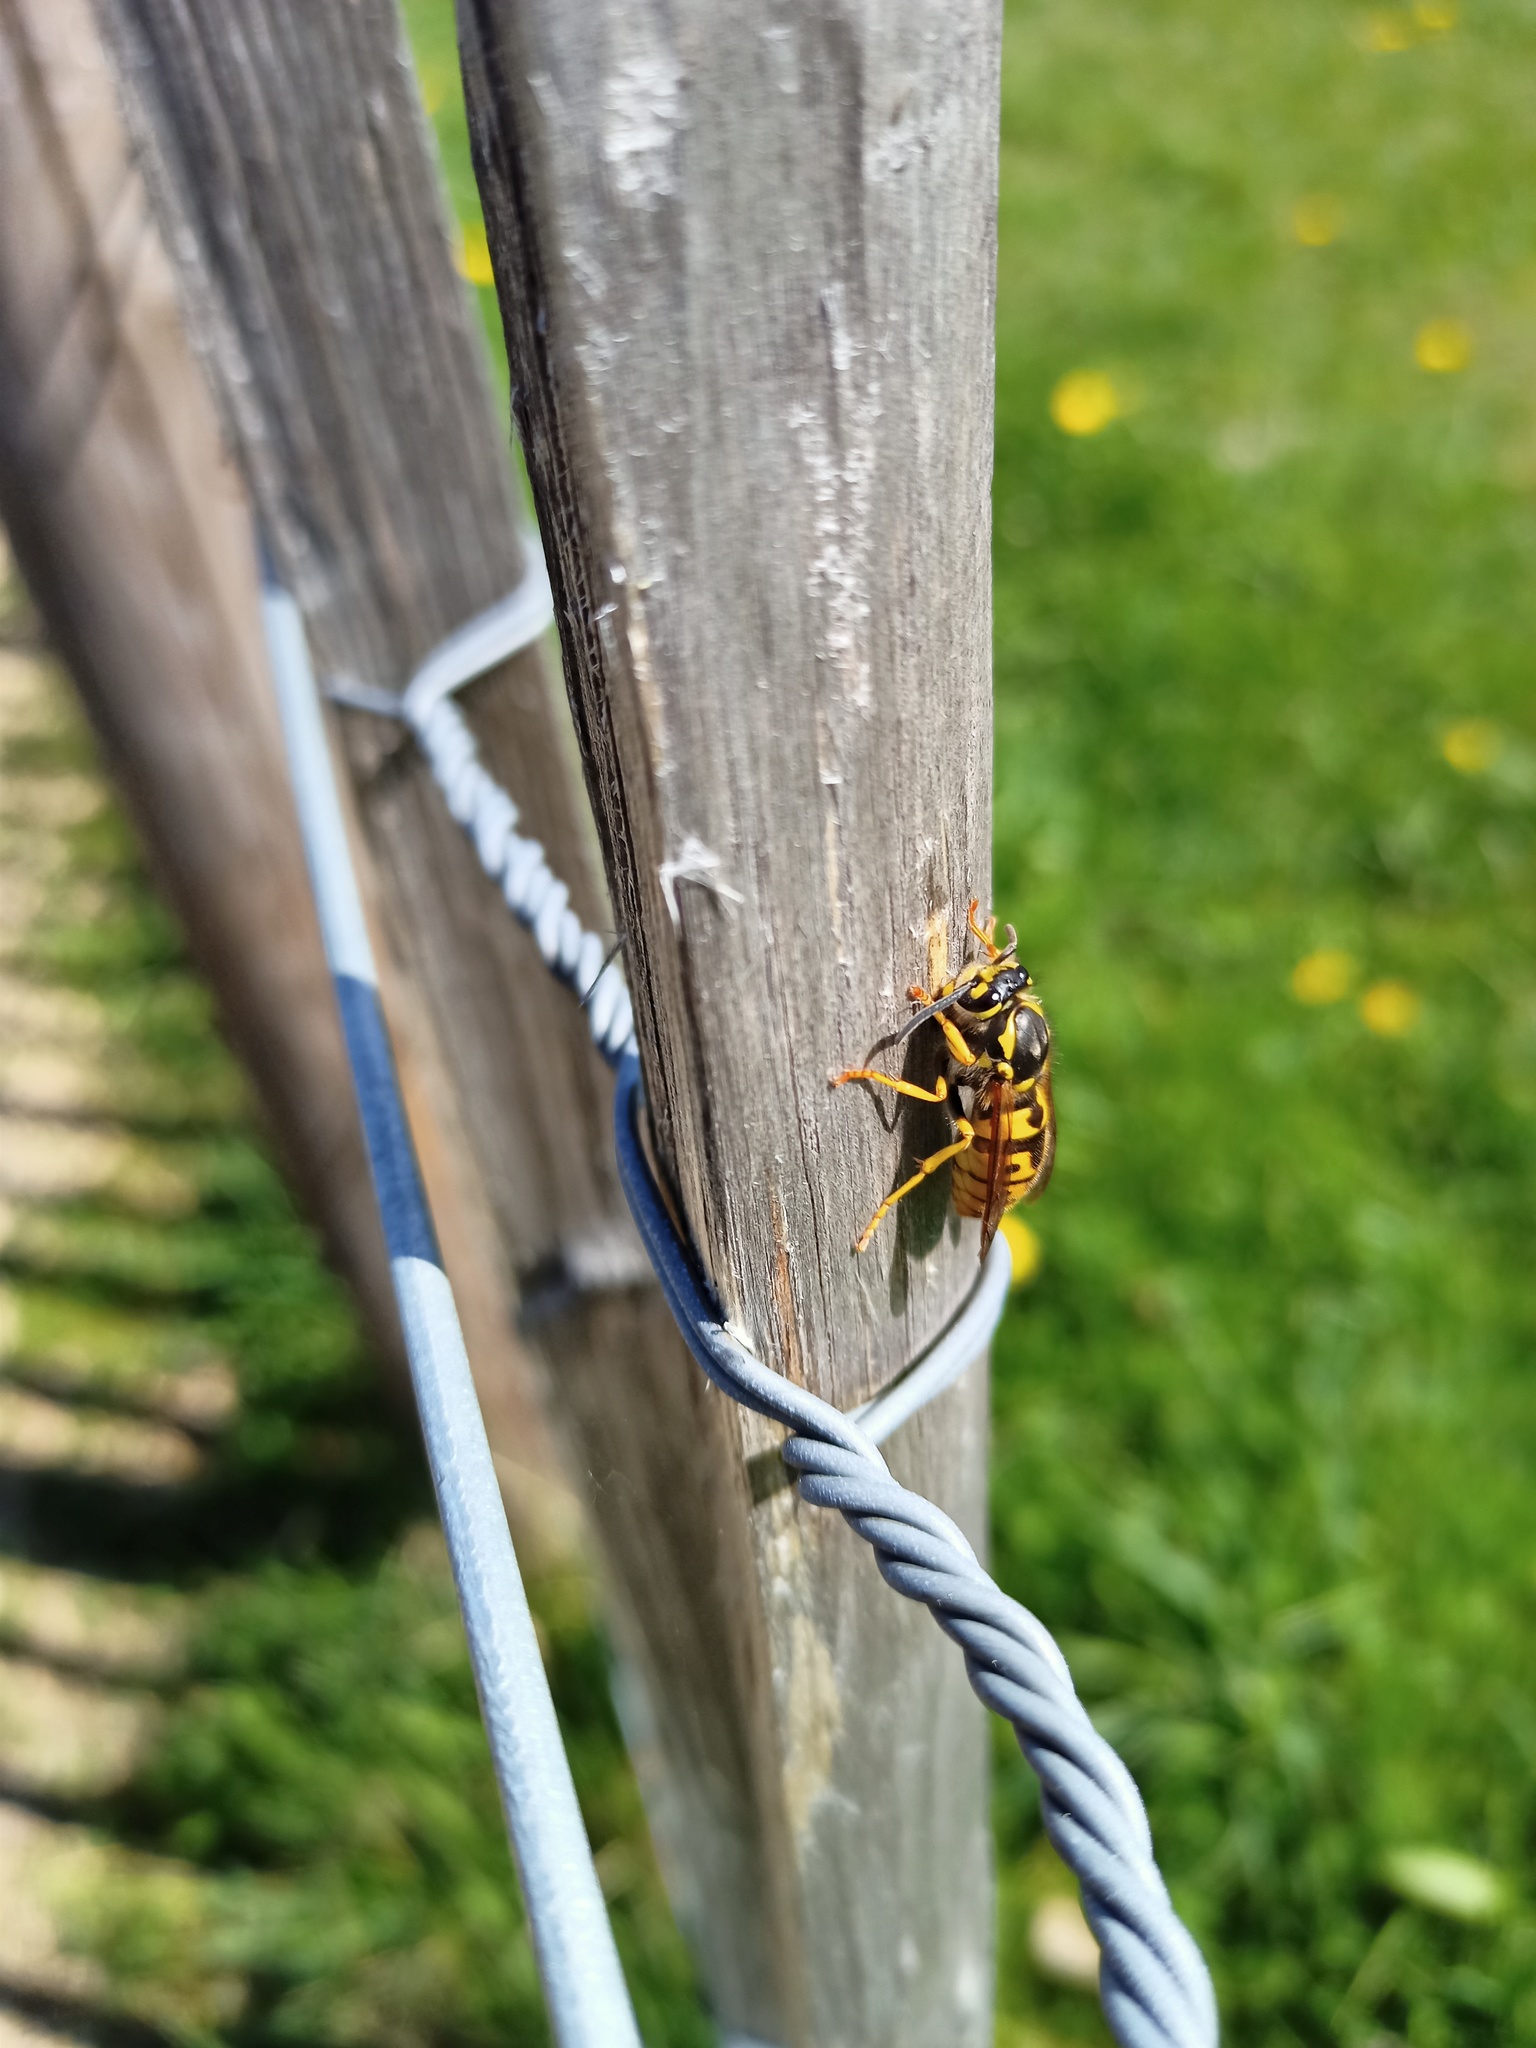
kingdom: Animalia
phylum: Arthropoda
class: Insecta
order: Hymenoptera
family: Vespidae
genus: Vespula
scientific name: Vespula germanica
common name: German wasp
